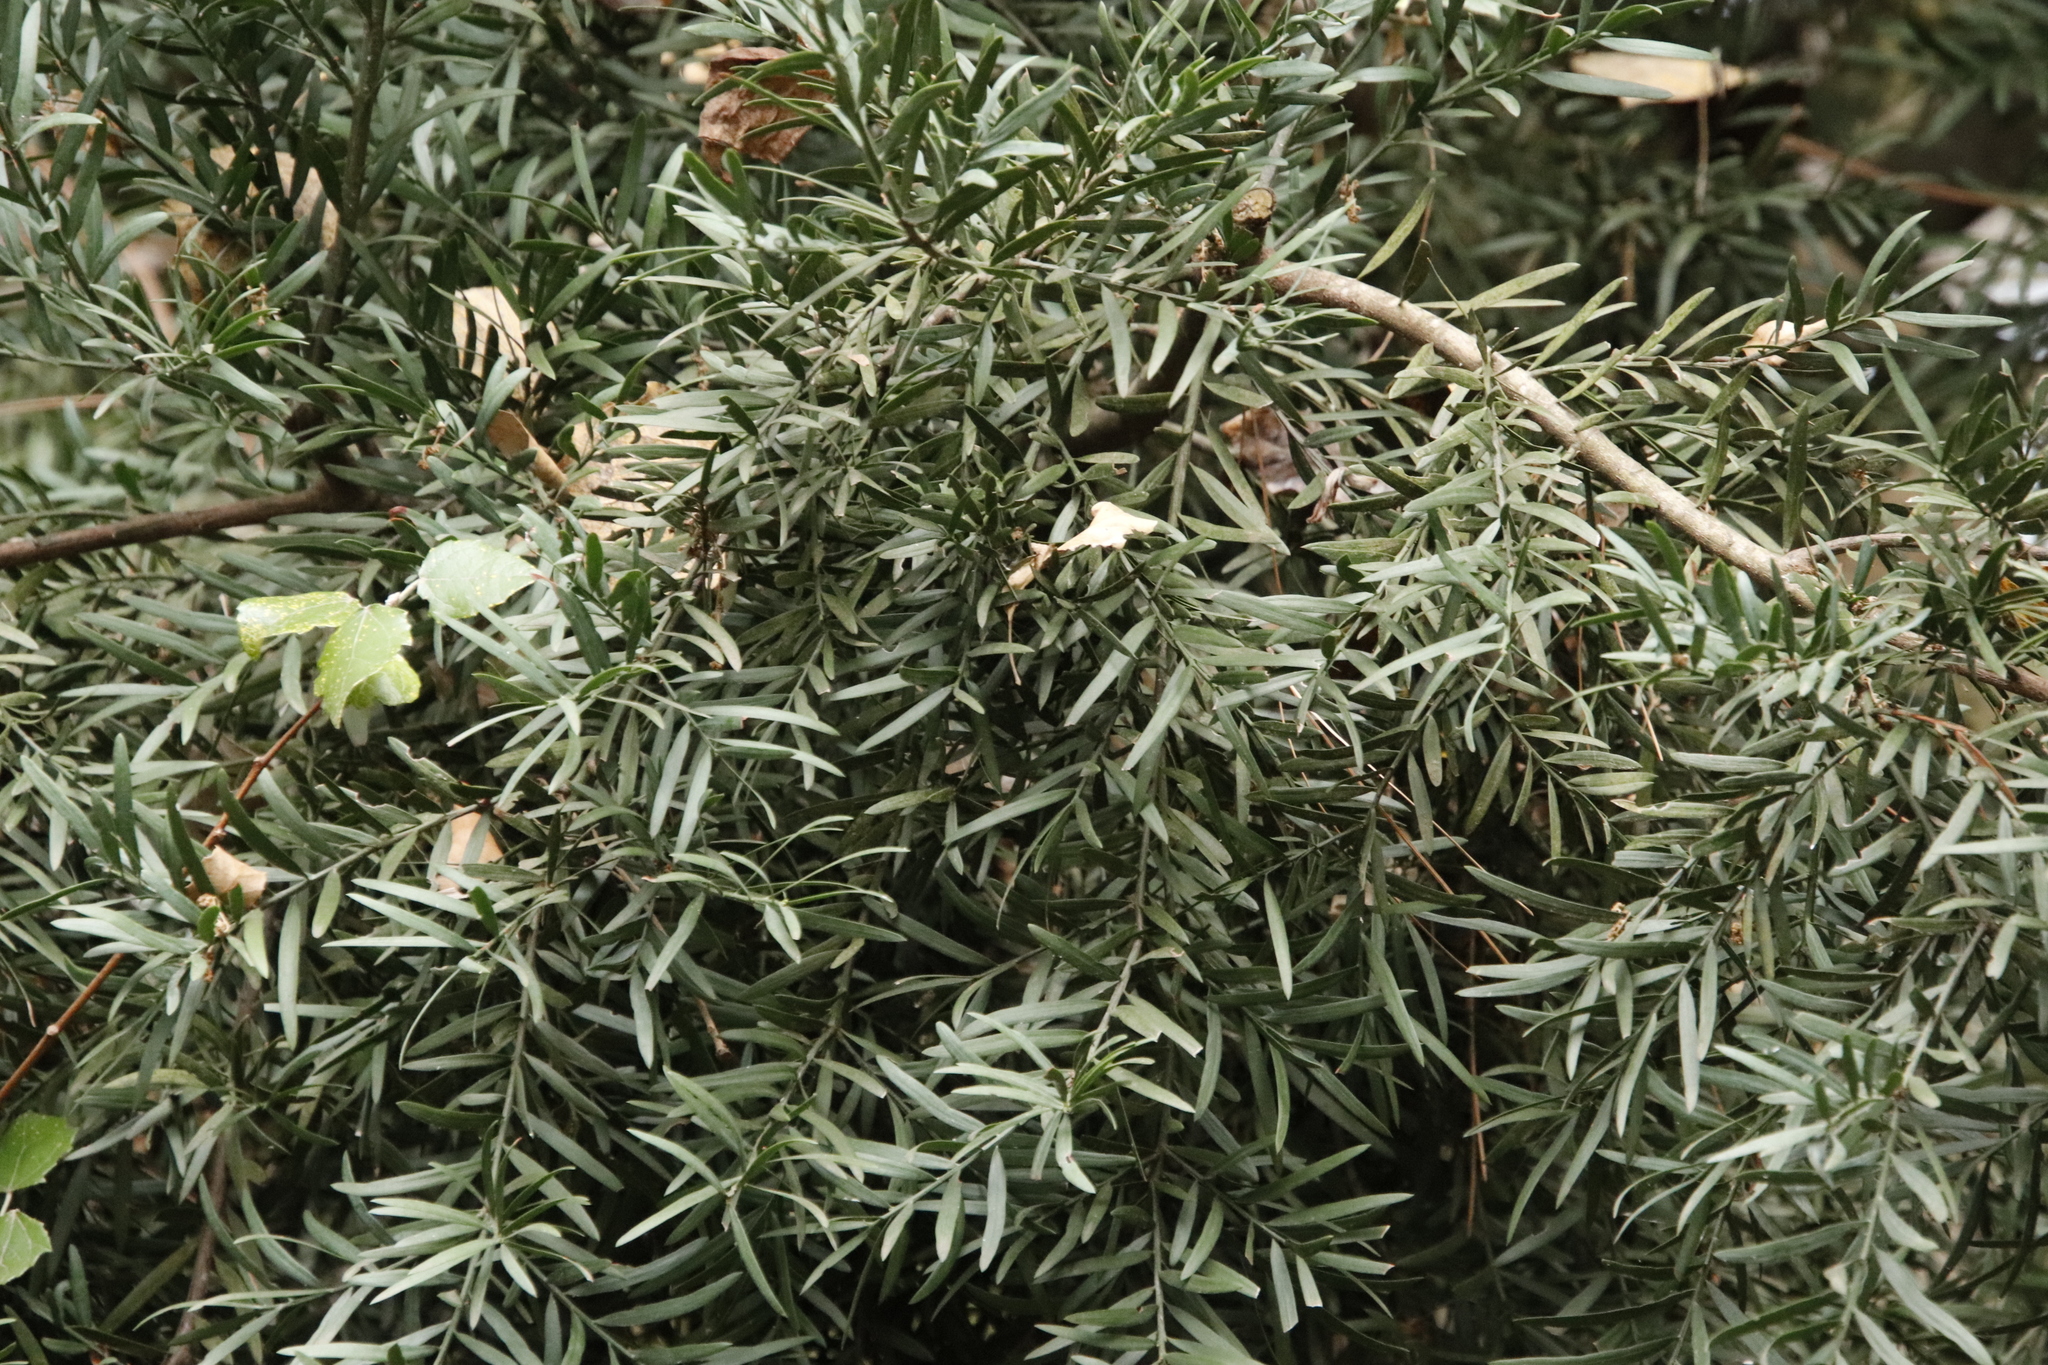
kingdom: Plantae
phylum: Tracheophyta
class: Pinopsida
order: Pinales
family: Podocarpaceae
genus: Afrocarpus
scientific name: Afrocarpus falcatus
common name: Bastard yellowwood
